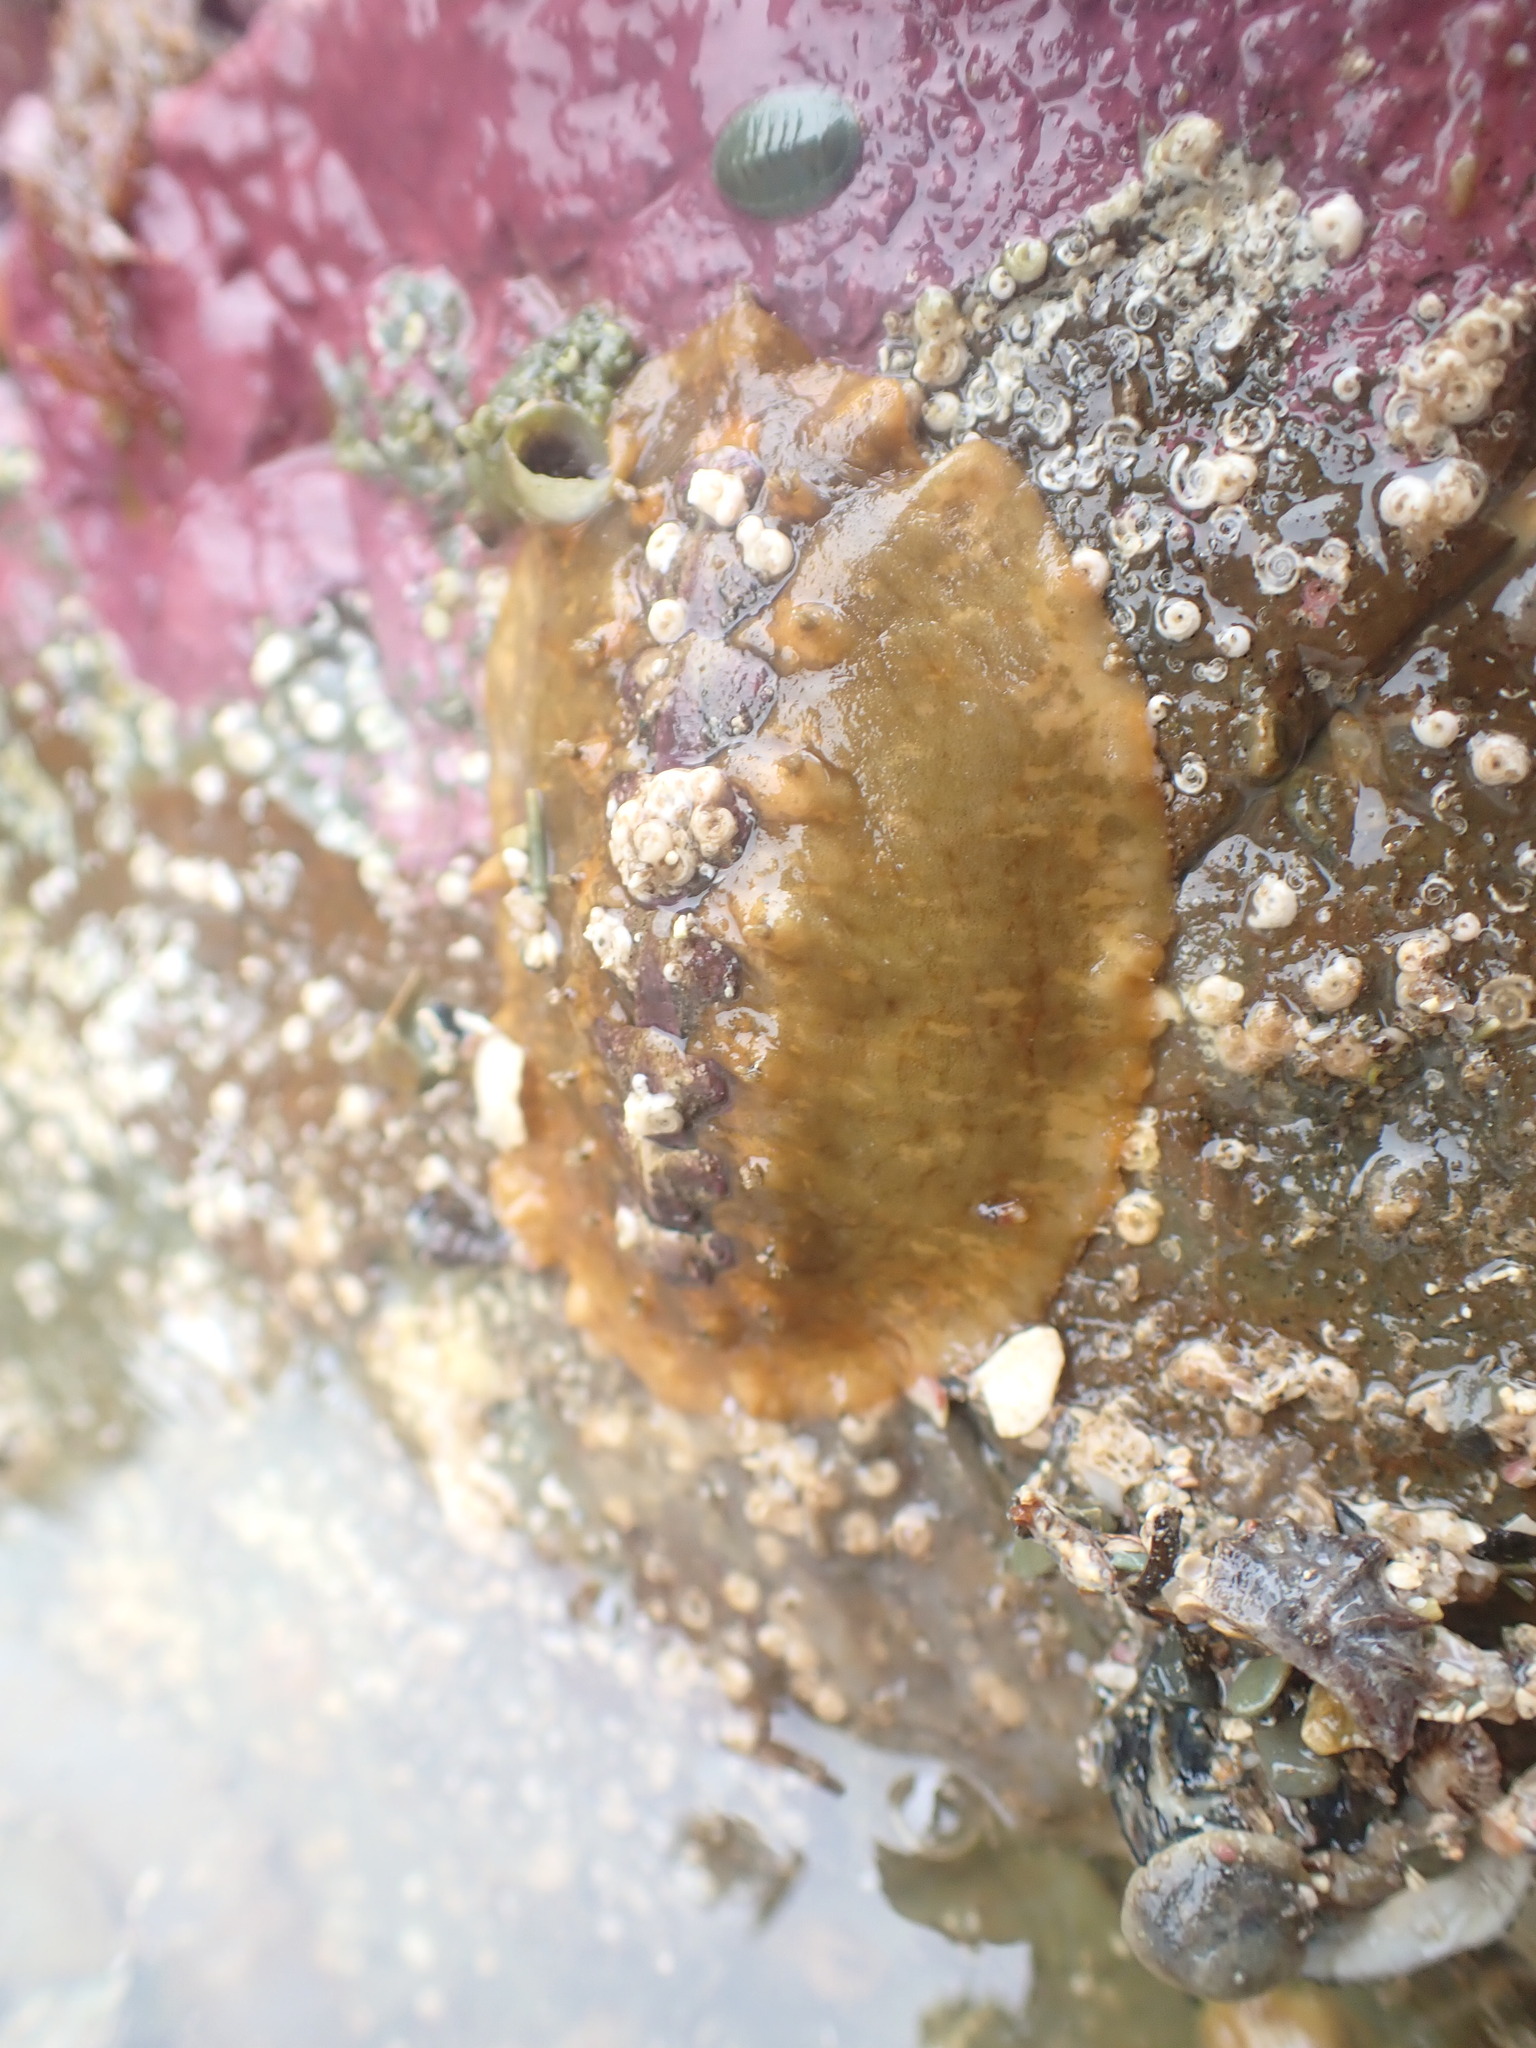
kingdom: Animalia
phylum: Mollusca
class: Polyplacophora
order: Chitonida
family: Acanthochitonidae
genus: Notoplax
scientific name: Notoplax violacea
